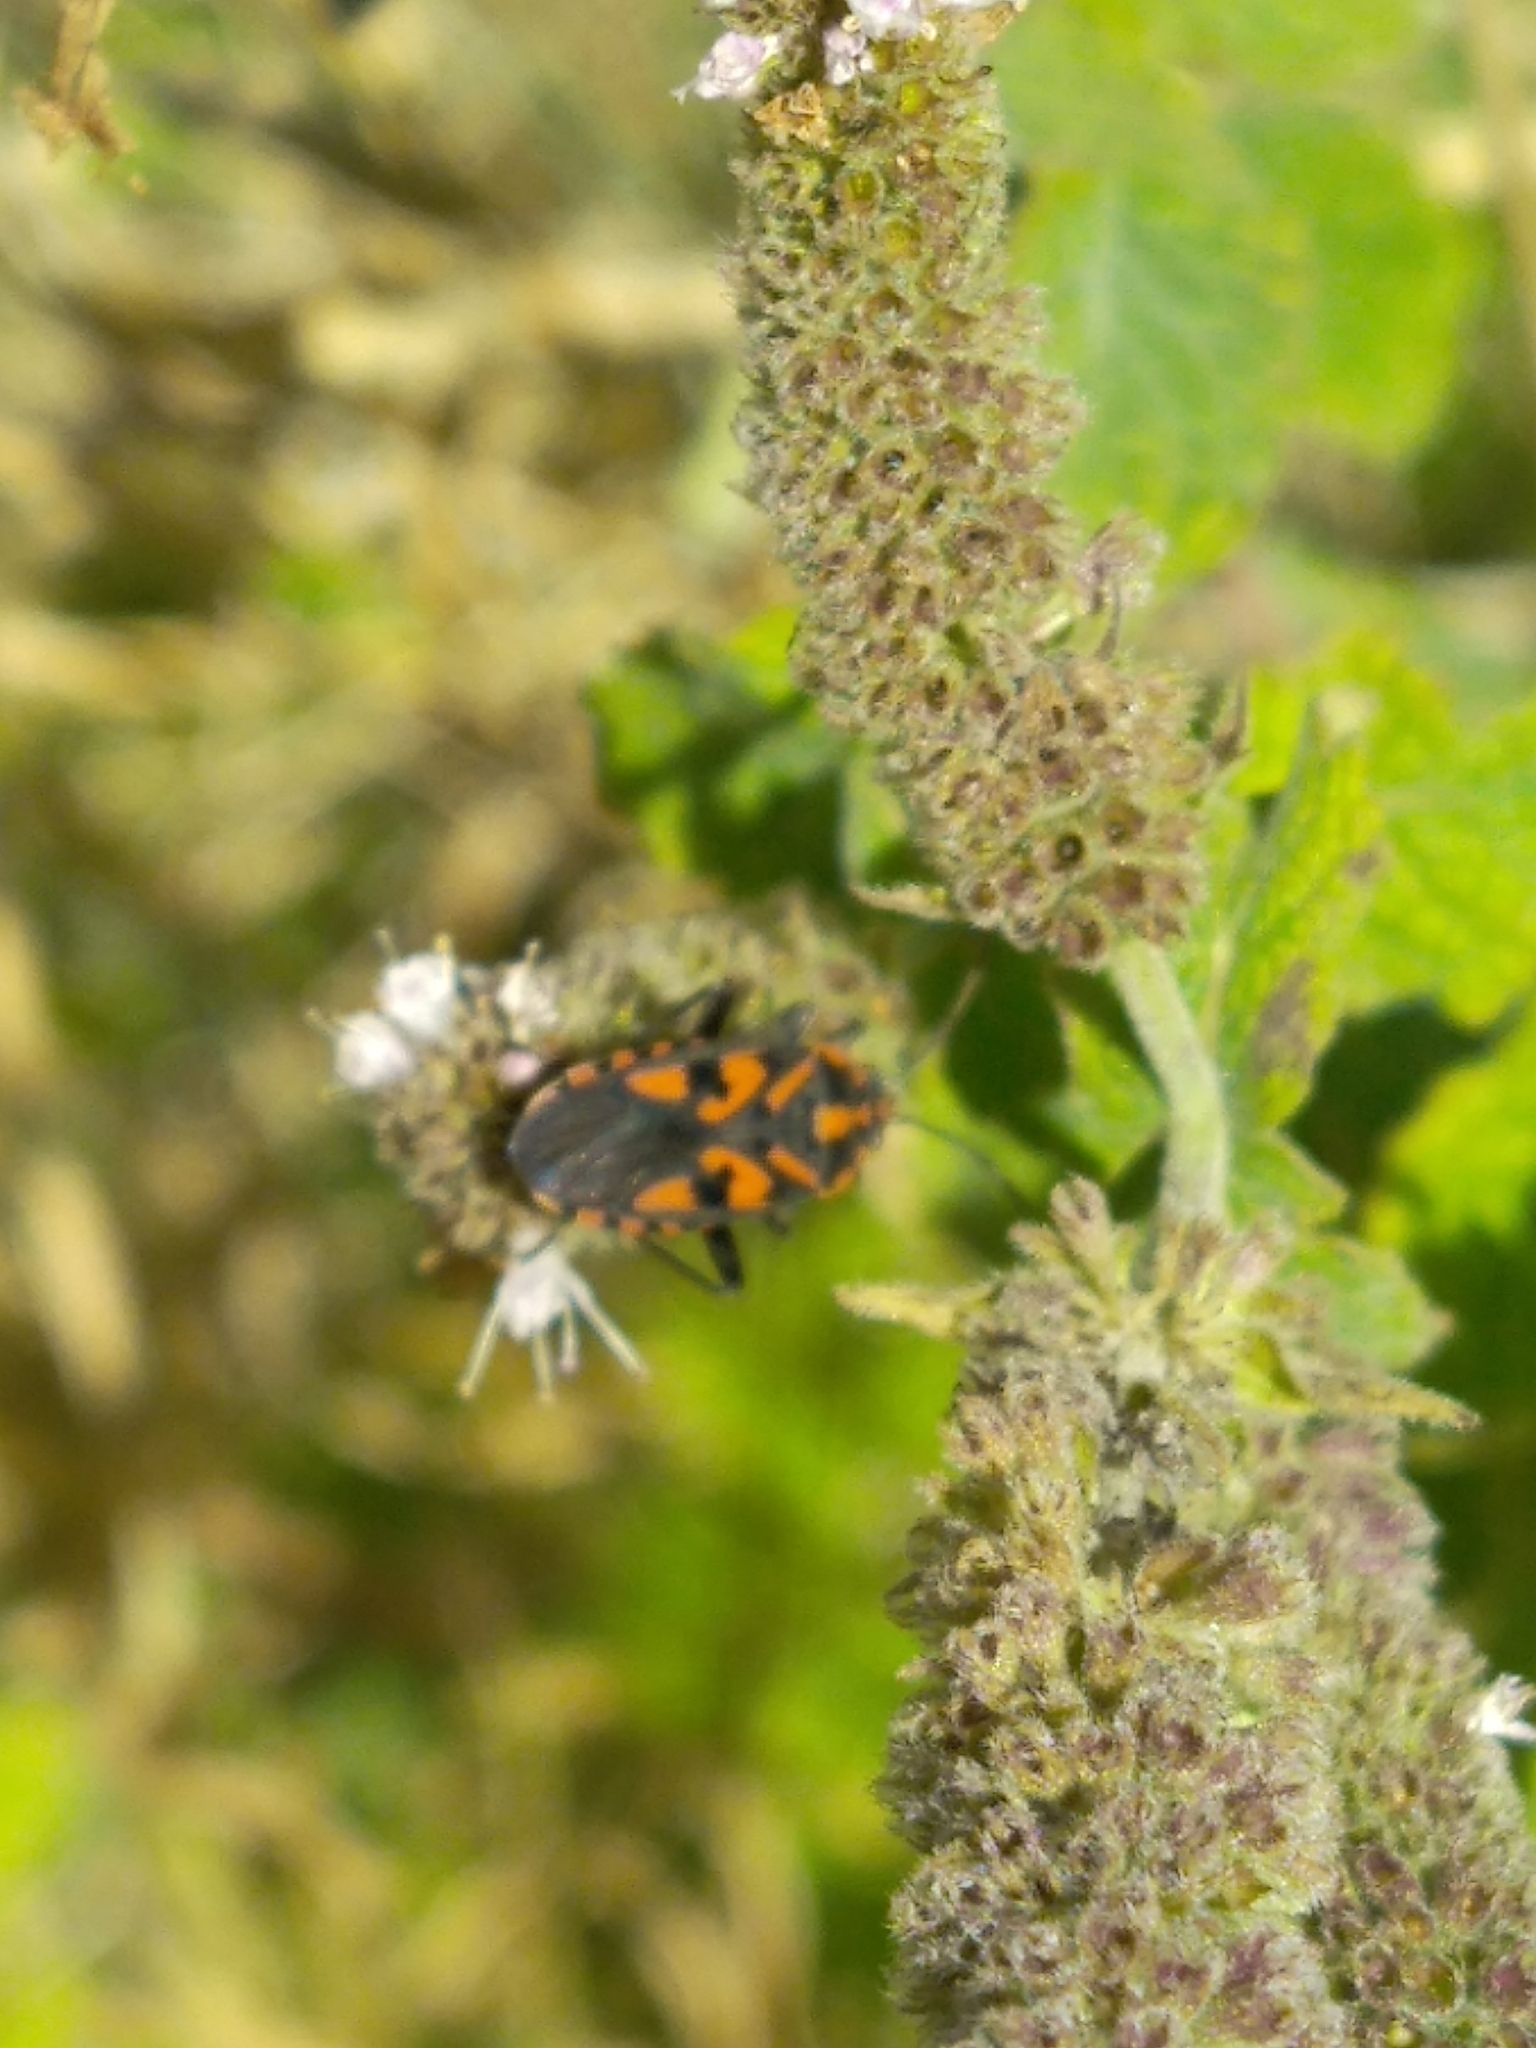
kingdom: Animalia
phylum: Arthropoda
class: Insecta
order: Hemiptera
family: Lygaeidae
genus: Spilostethus
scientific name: Spilostethus saxatilis
